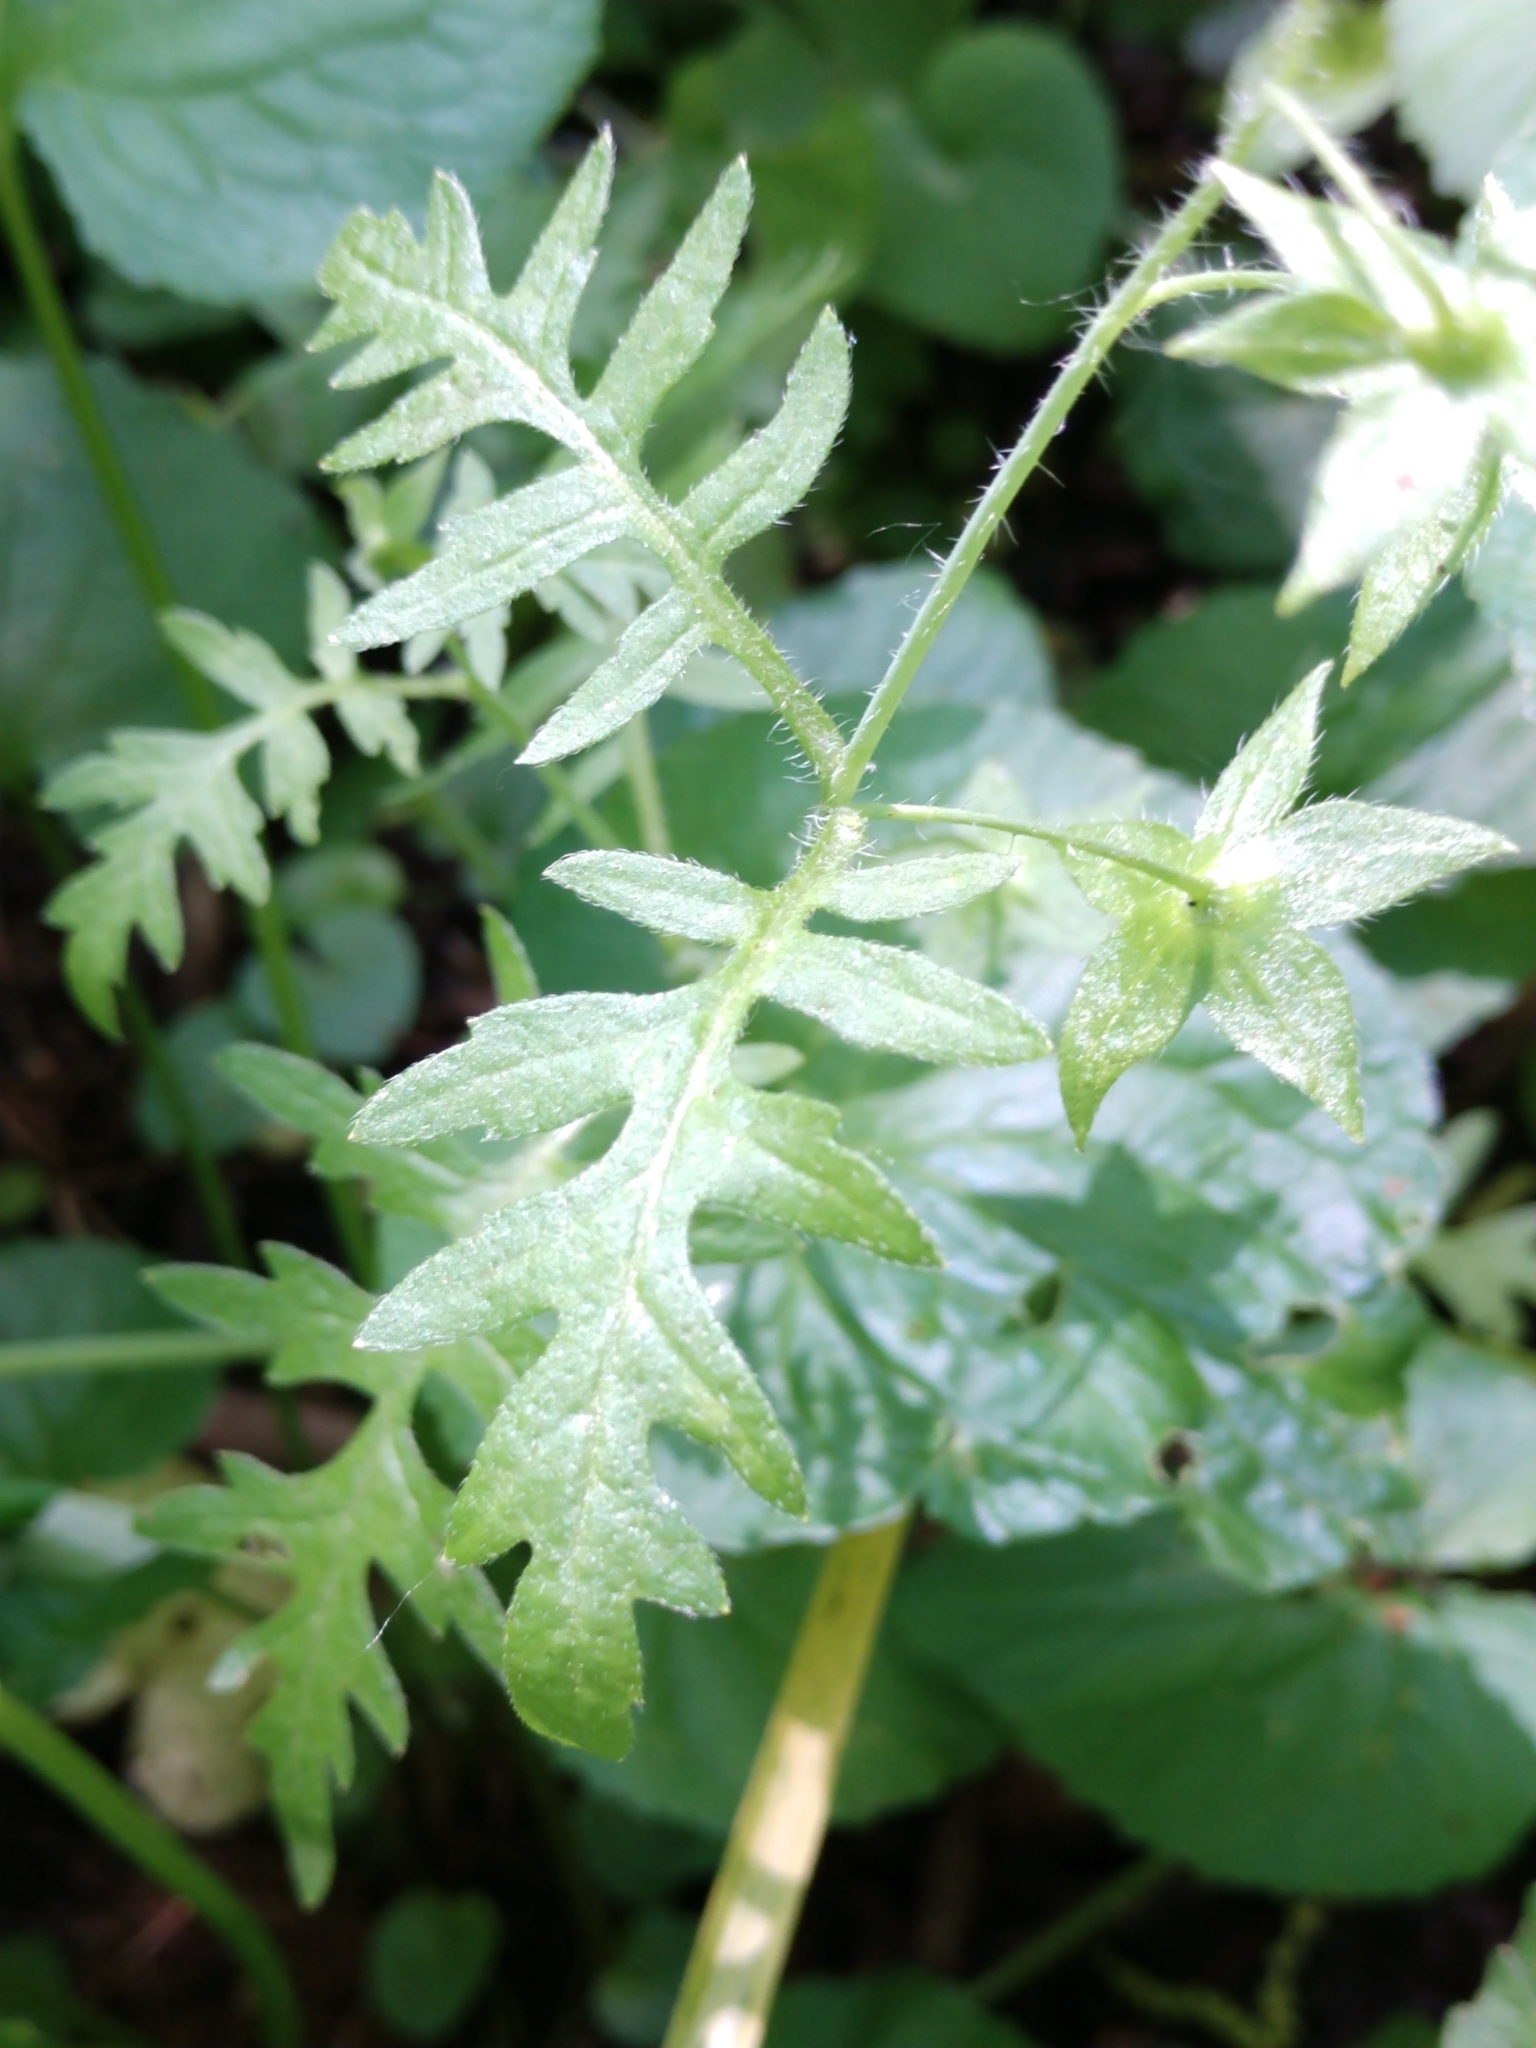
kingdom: Plantae
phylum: Tracheophyta
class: Magnoliopsida
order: Boraginales
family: Hydrophyllaceae
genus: Ellisia
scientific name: Ellisia nyctelea
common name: Aunt lucy
